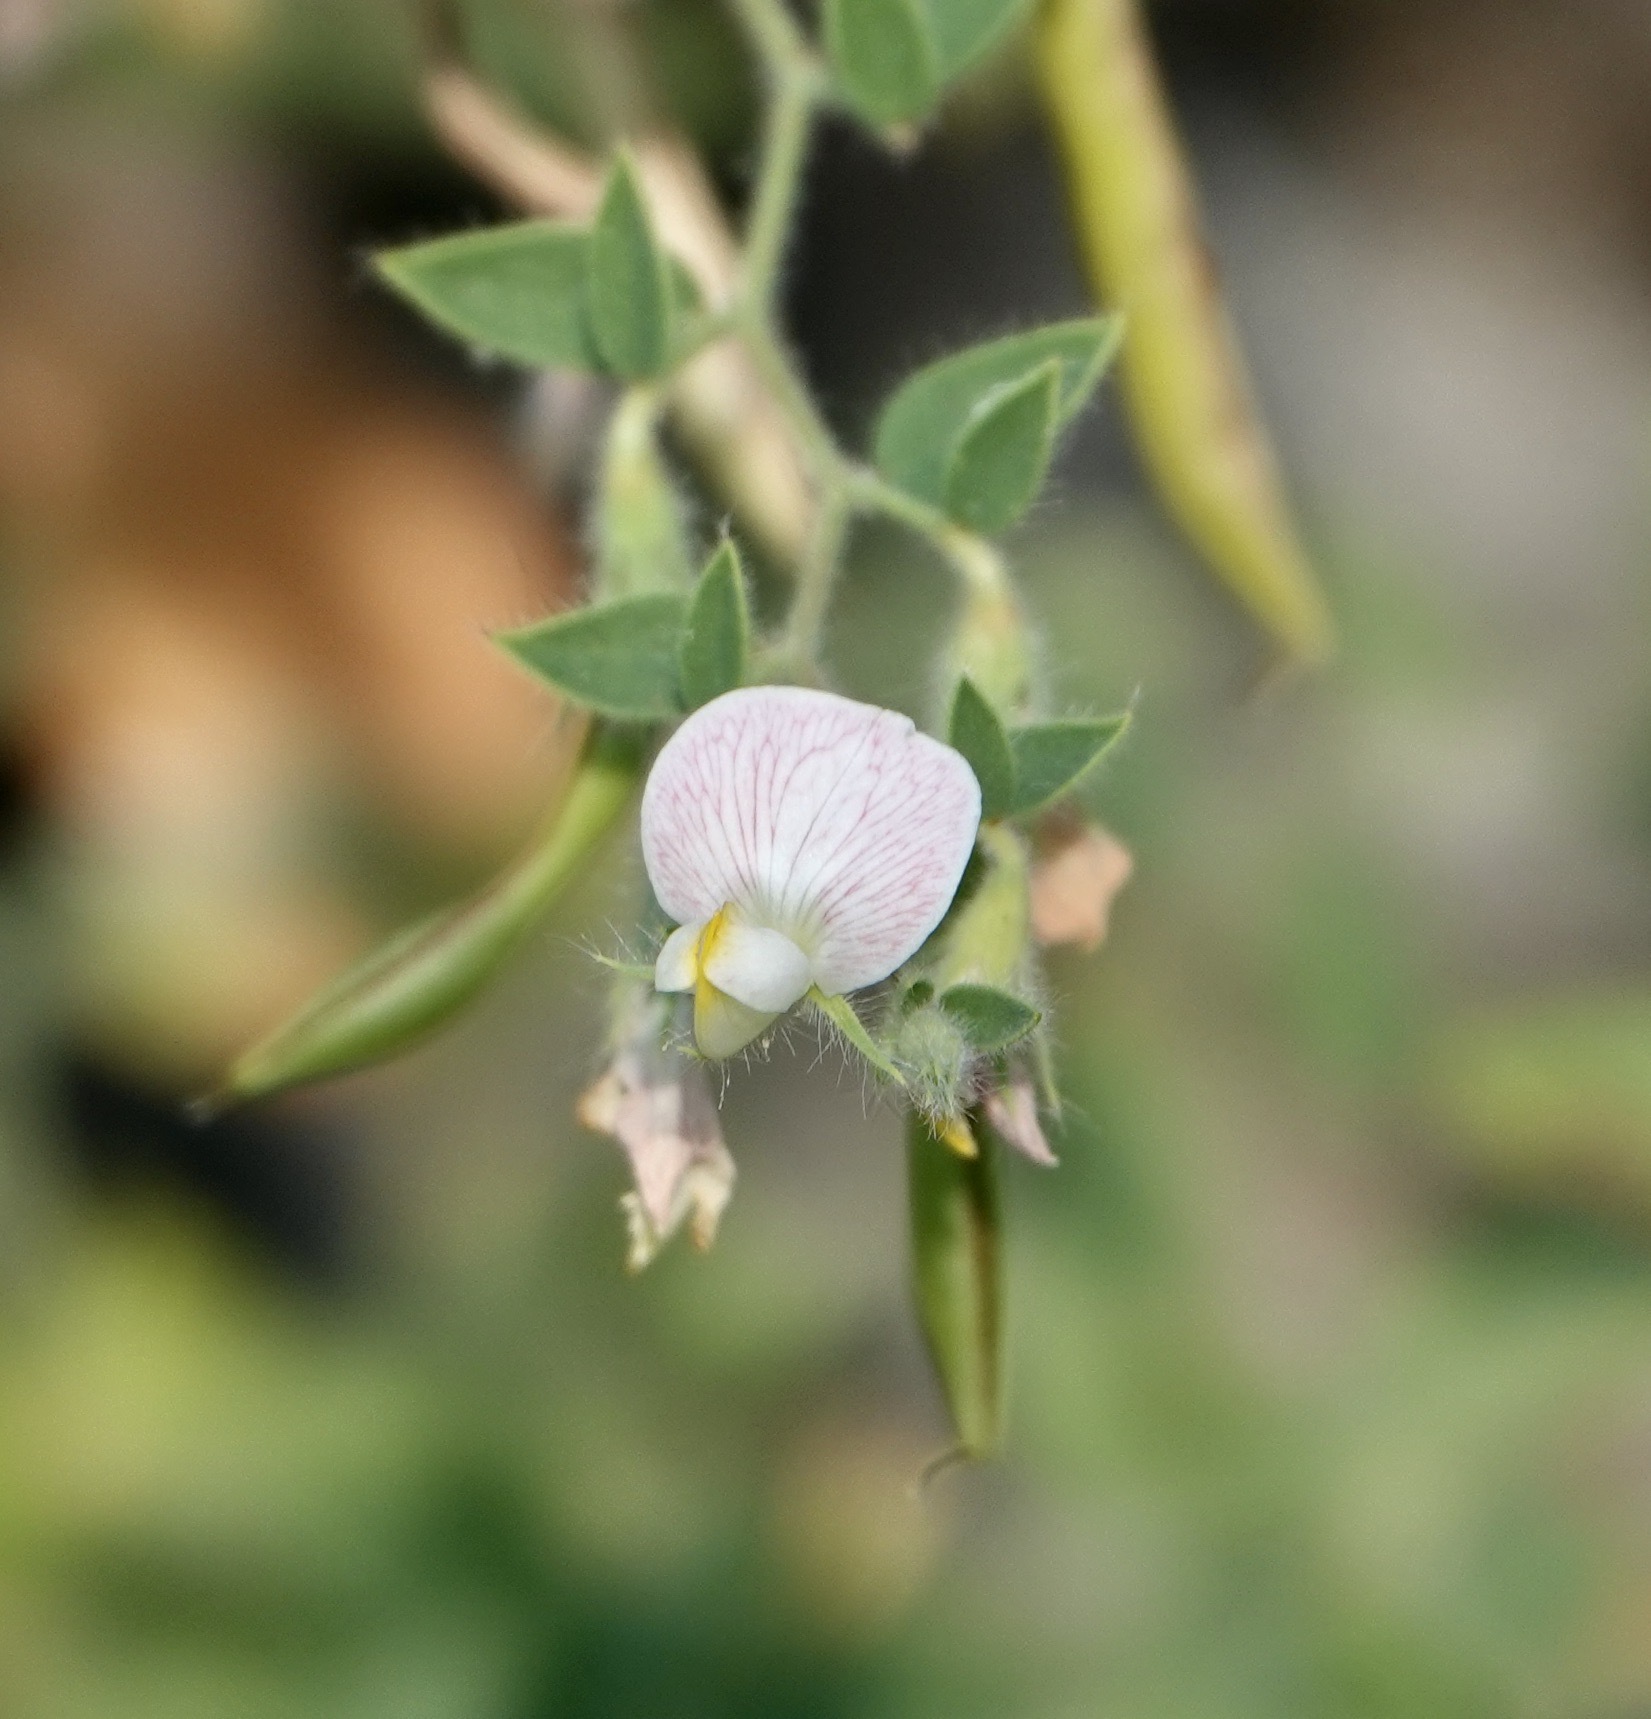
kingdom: Plantae
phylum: Tracheophyta
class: Magnoliopsida
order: Fabales
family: Fabaceae
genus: Acmispon
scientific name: Acmispon americanus
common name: American bird's-foot trefoil
